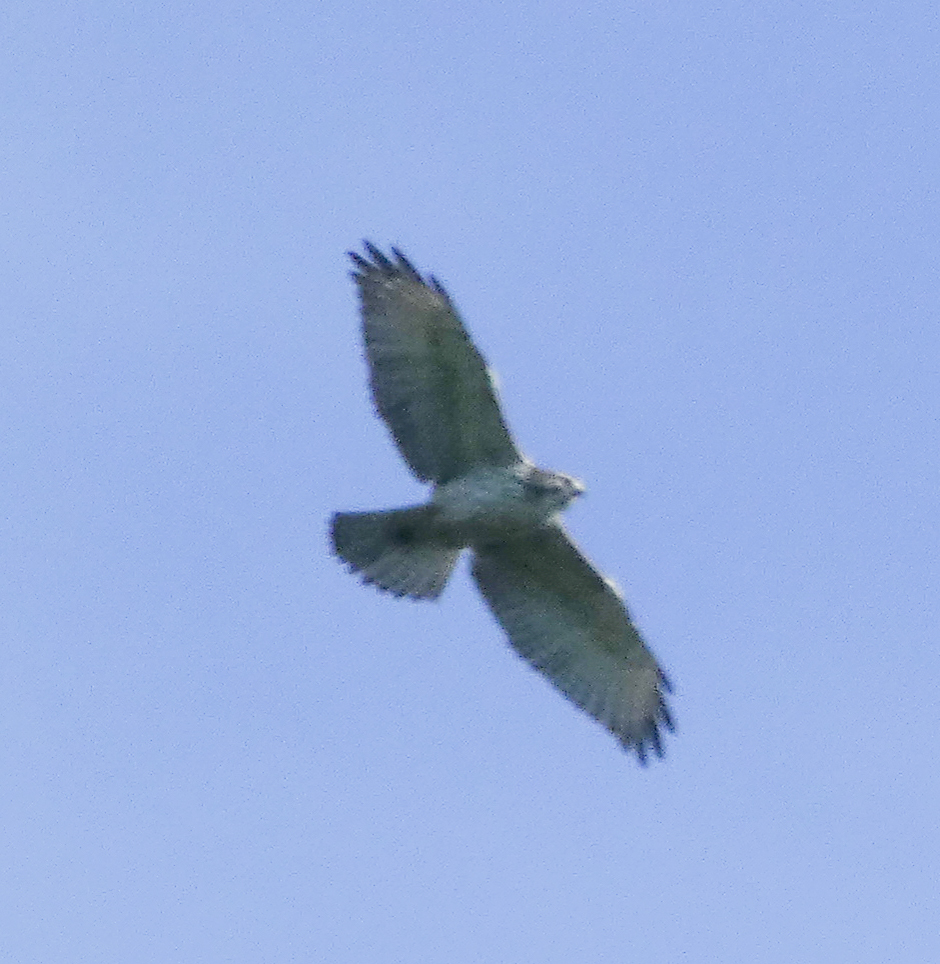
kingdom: Animalia
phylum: Chordata
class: Aves
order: Accipitriformes
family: Accipitridae
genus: Buteo
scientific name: Buteo platypterus
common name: Broad-winged hawk
